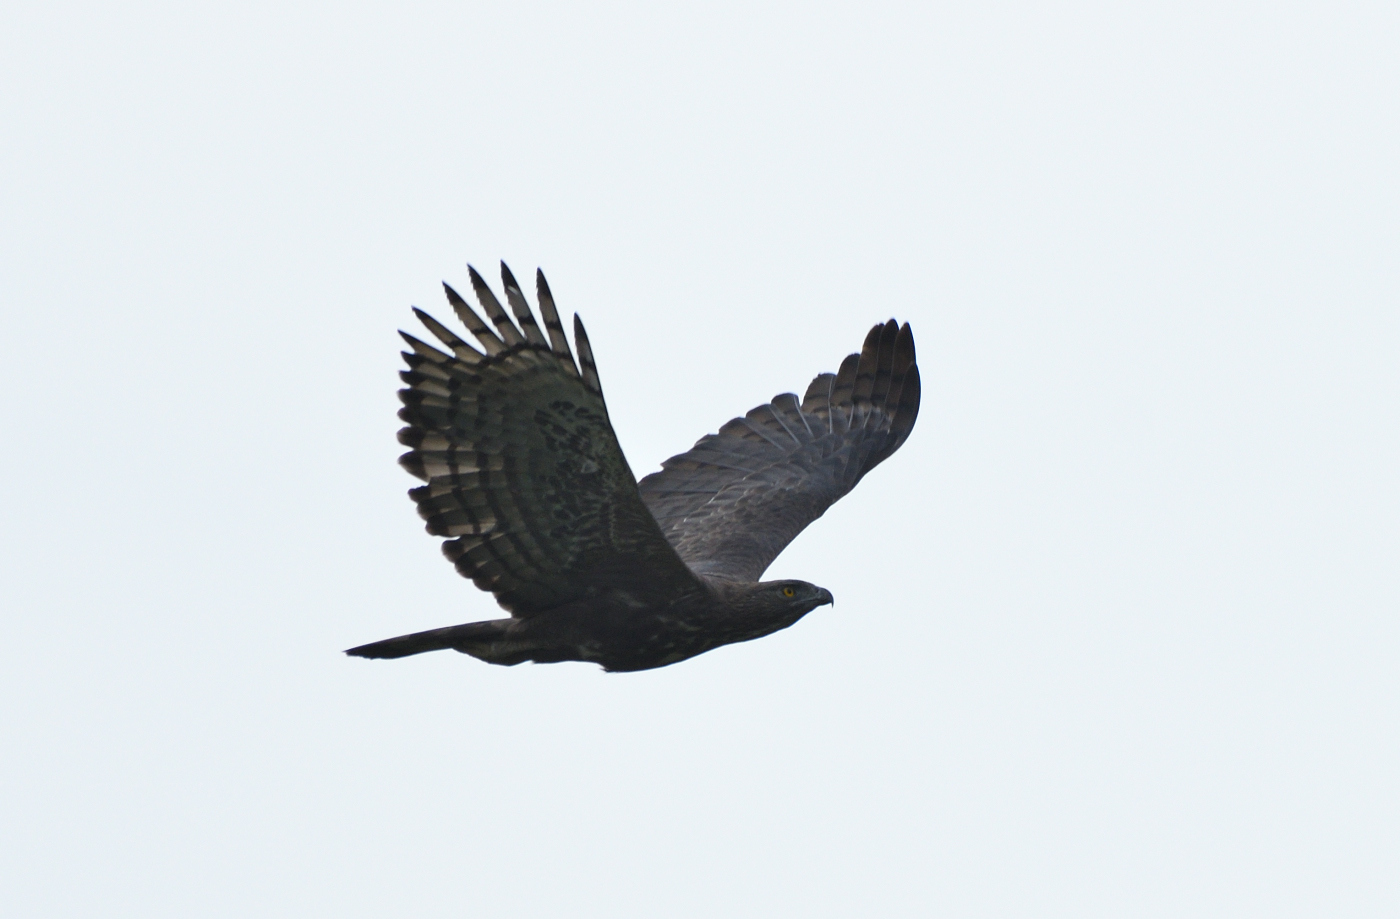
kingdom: Animalia
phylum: Chordata
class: Aves
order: Accipitriformes
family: Accipitridae
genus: Nisaetus
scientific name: Nisaetus cirrhatus
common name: Changeable hawk-eagle
